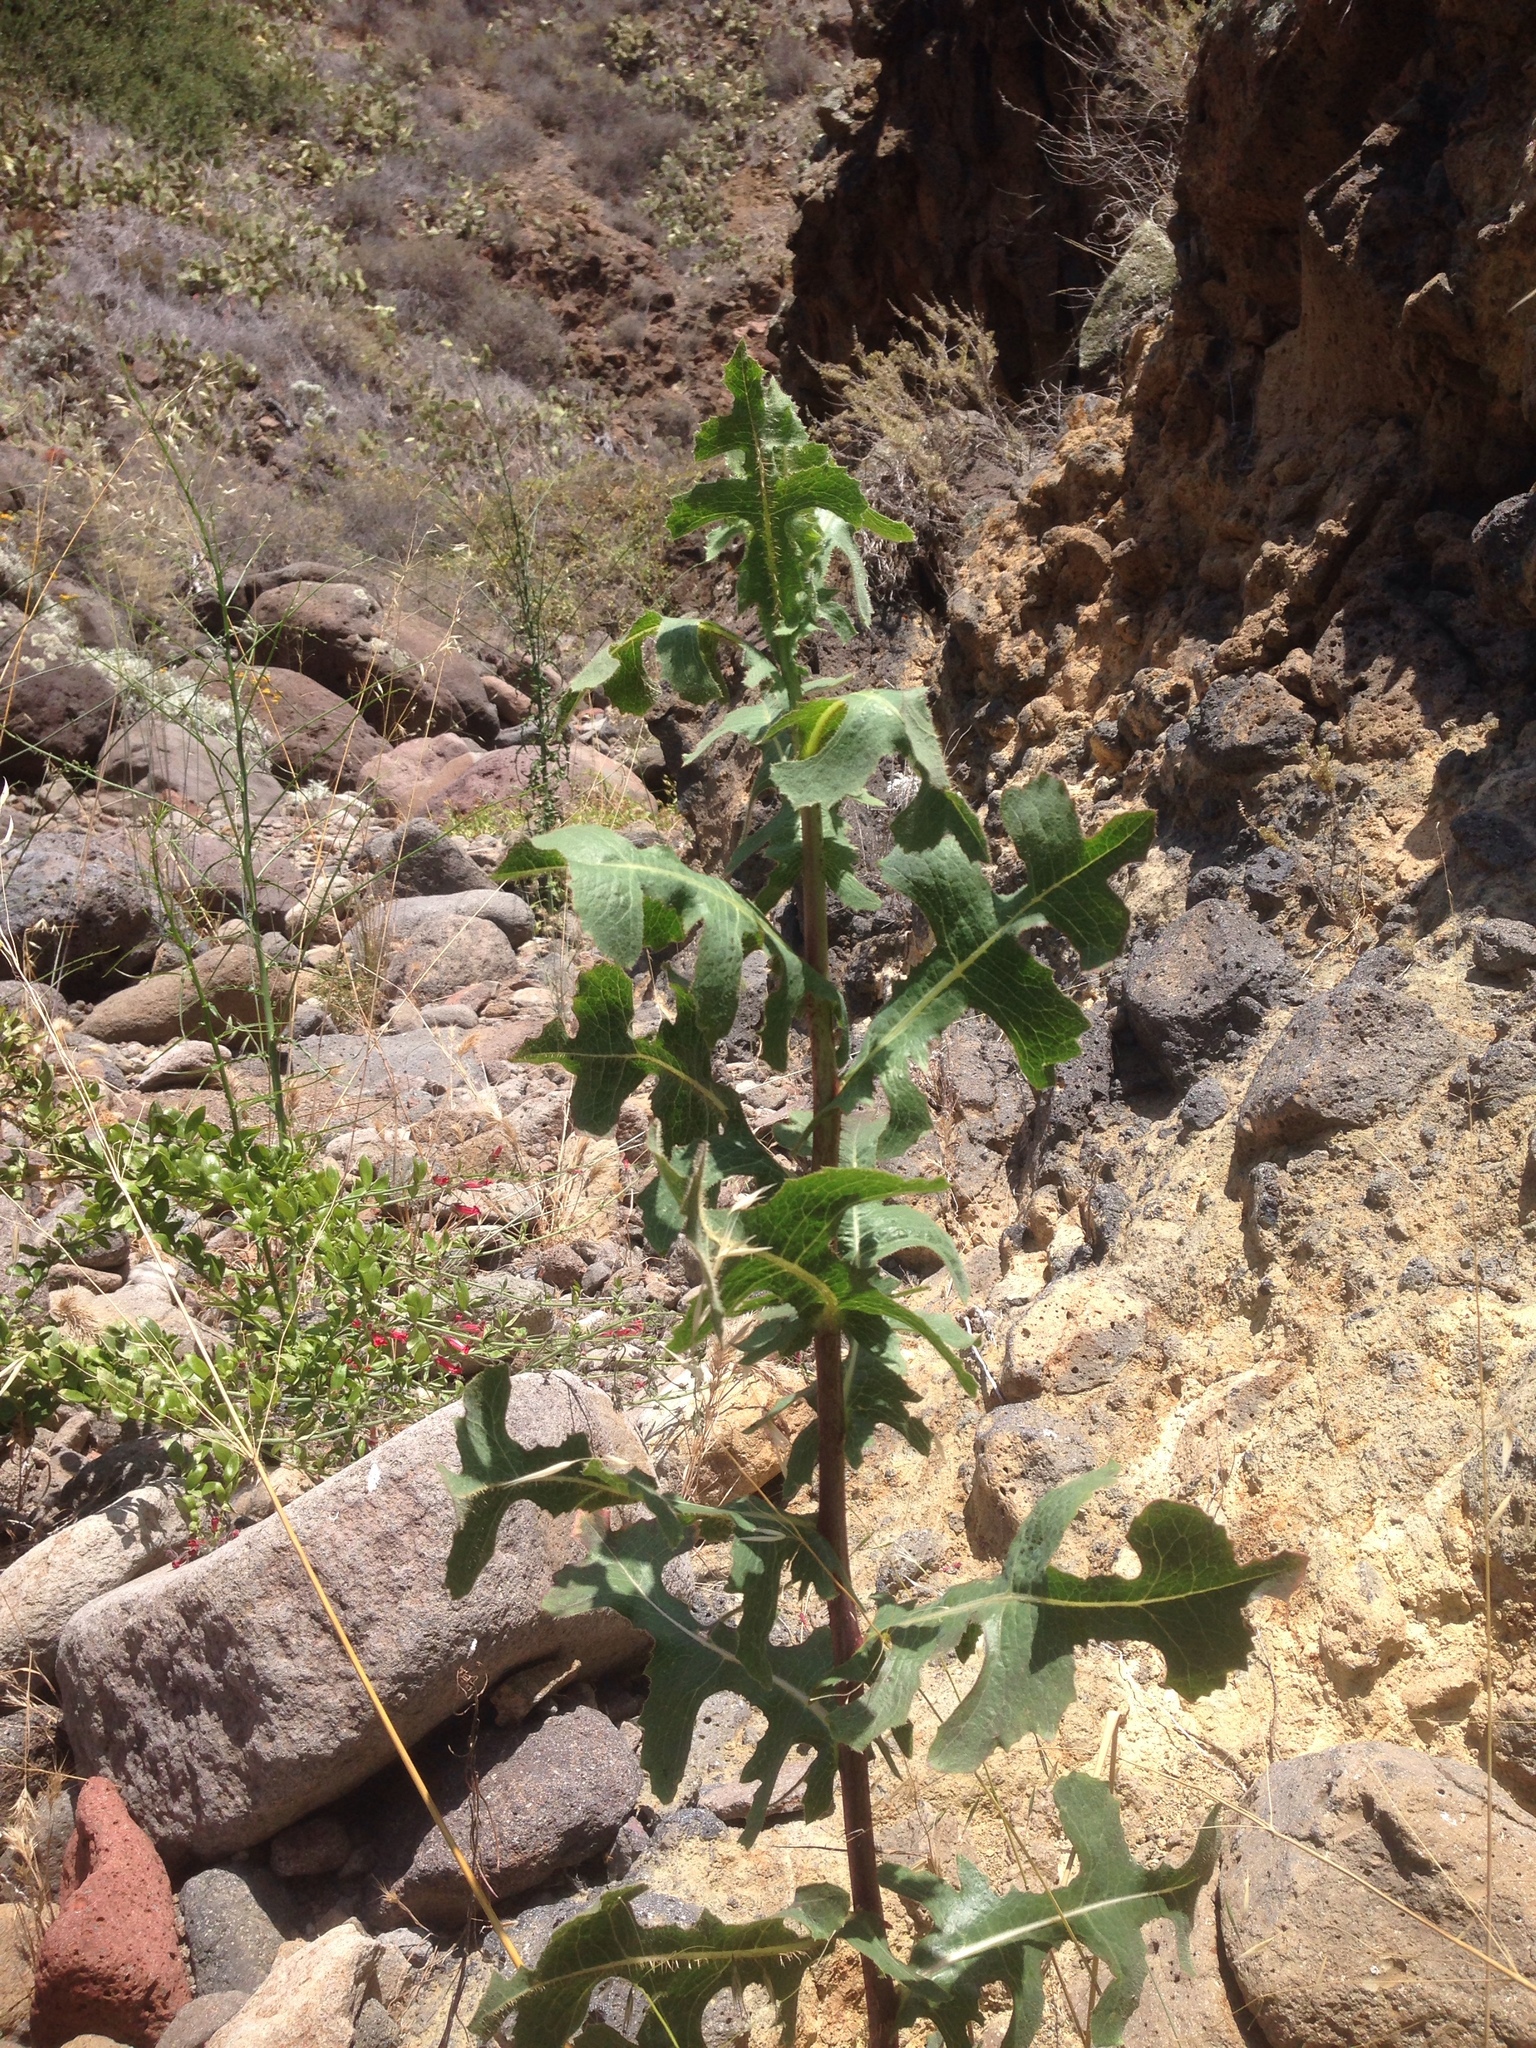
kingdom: Plantae
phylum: Tracheophyta
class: Magnoliopsida
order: Asterales
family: Asteraceae
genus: Lactuca
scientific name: Lactuca serriola
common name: Prickly lettuce
